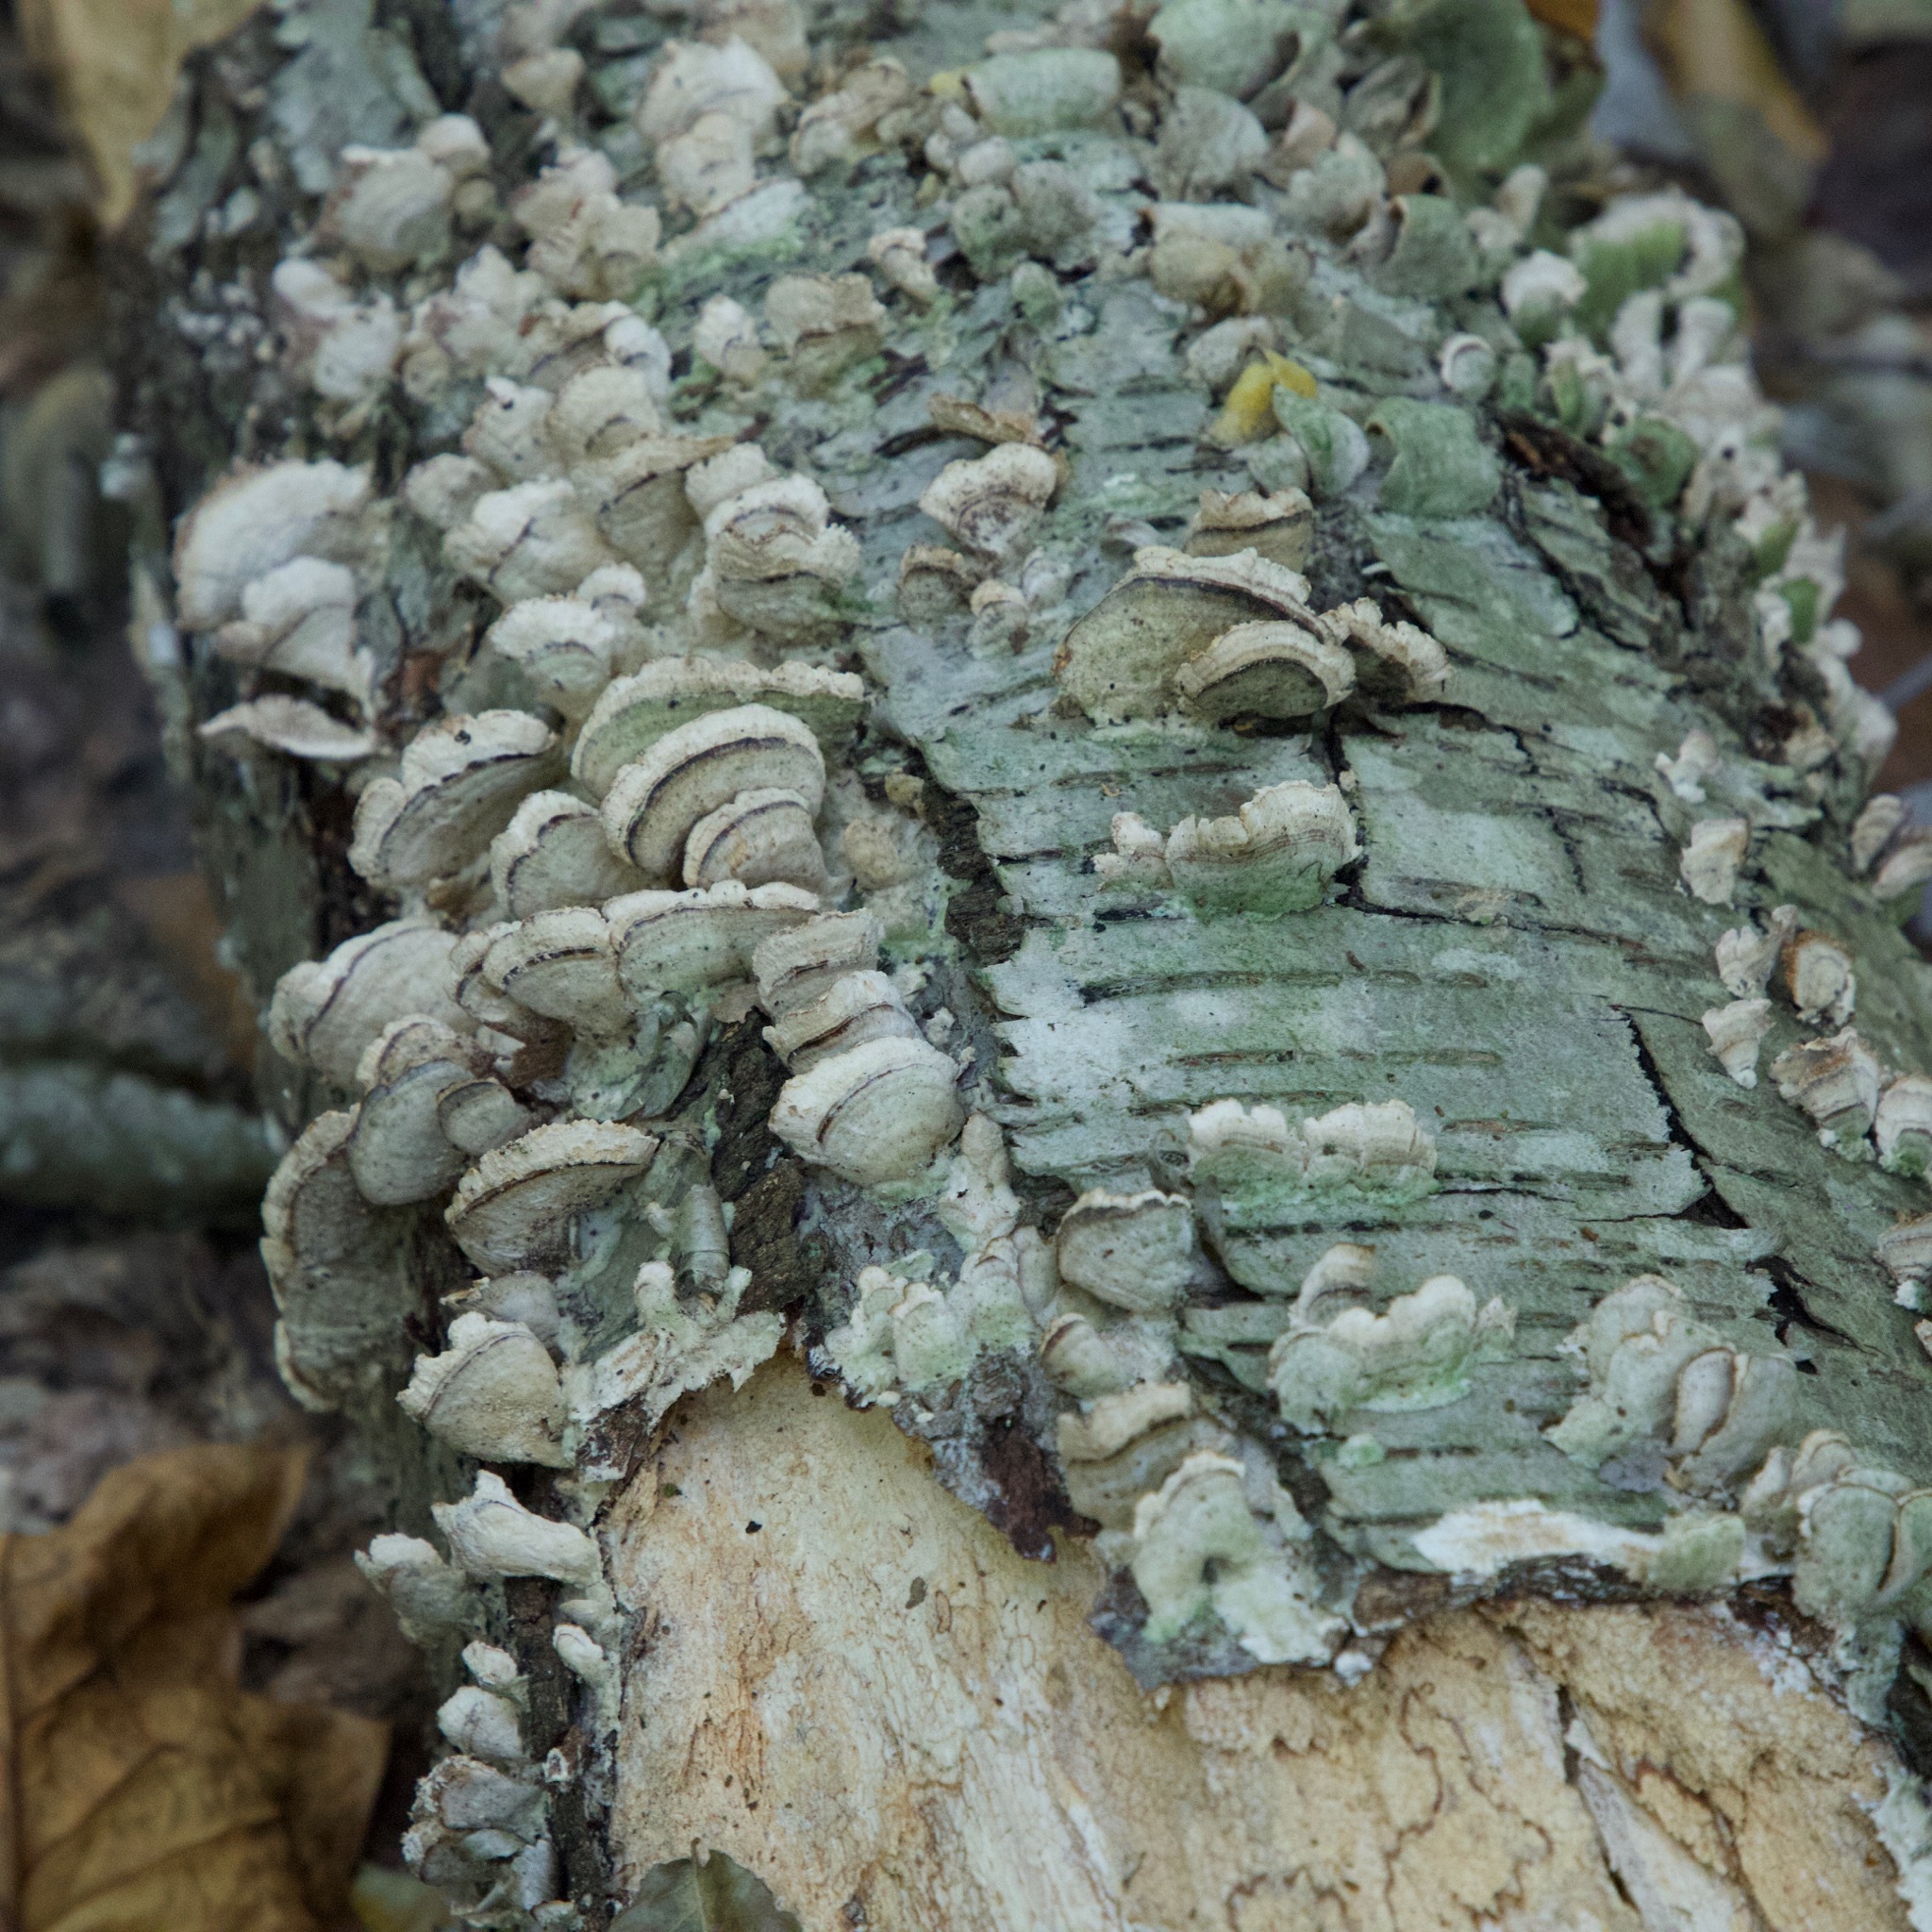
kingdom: Fungi
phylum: Basidiomycota
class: Agaricomycetes
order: Hymenochaetales
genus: Trichaptum
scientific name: Trichaptum biforme
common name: Violet-toothed polypore
